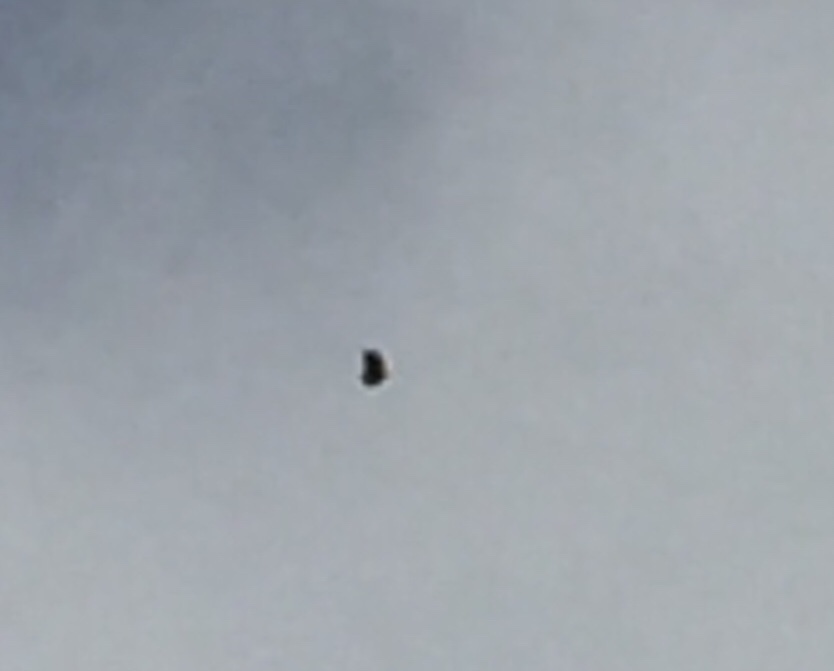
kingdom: Animalia
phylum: Chordata
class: Aves
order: Accipitriformes
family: Accipitridae
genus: Ictinaetus
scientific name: Ictinaetus malayensis
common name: Black eagle
